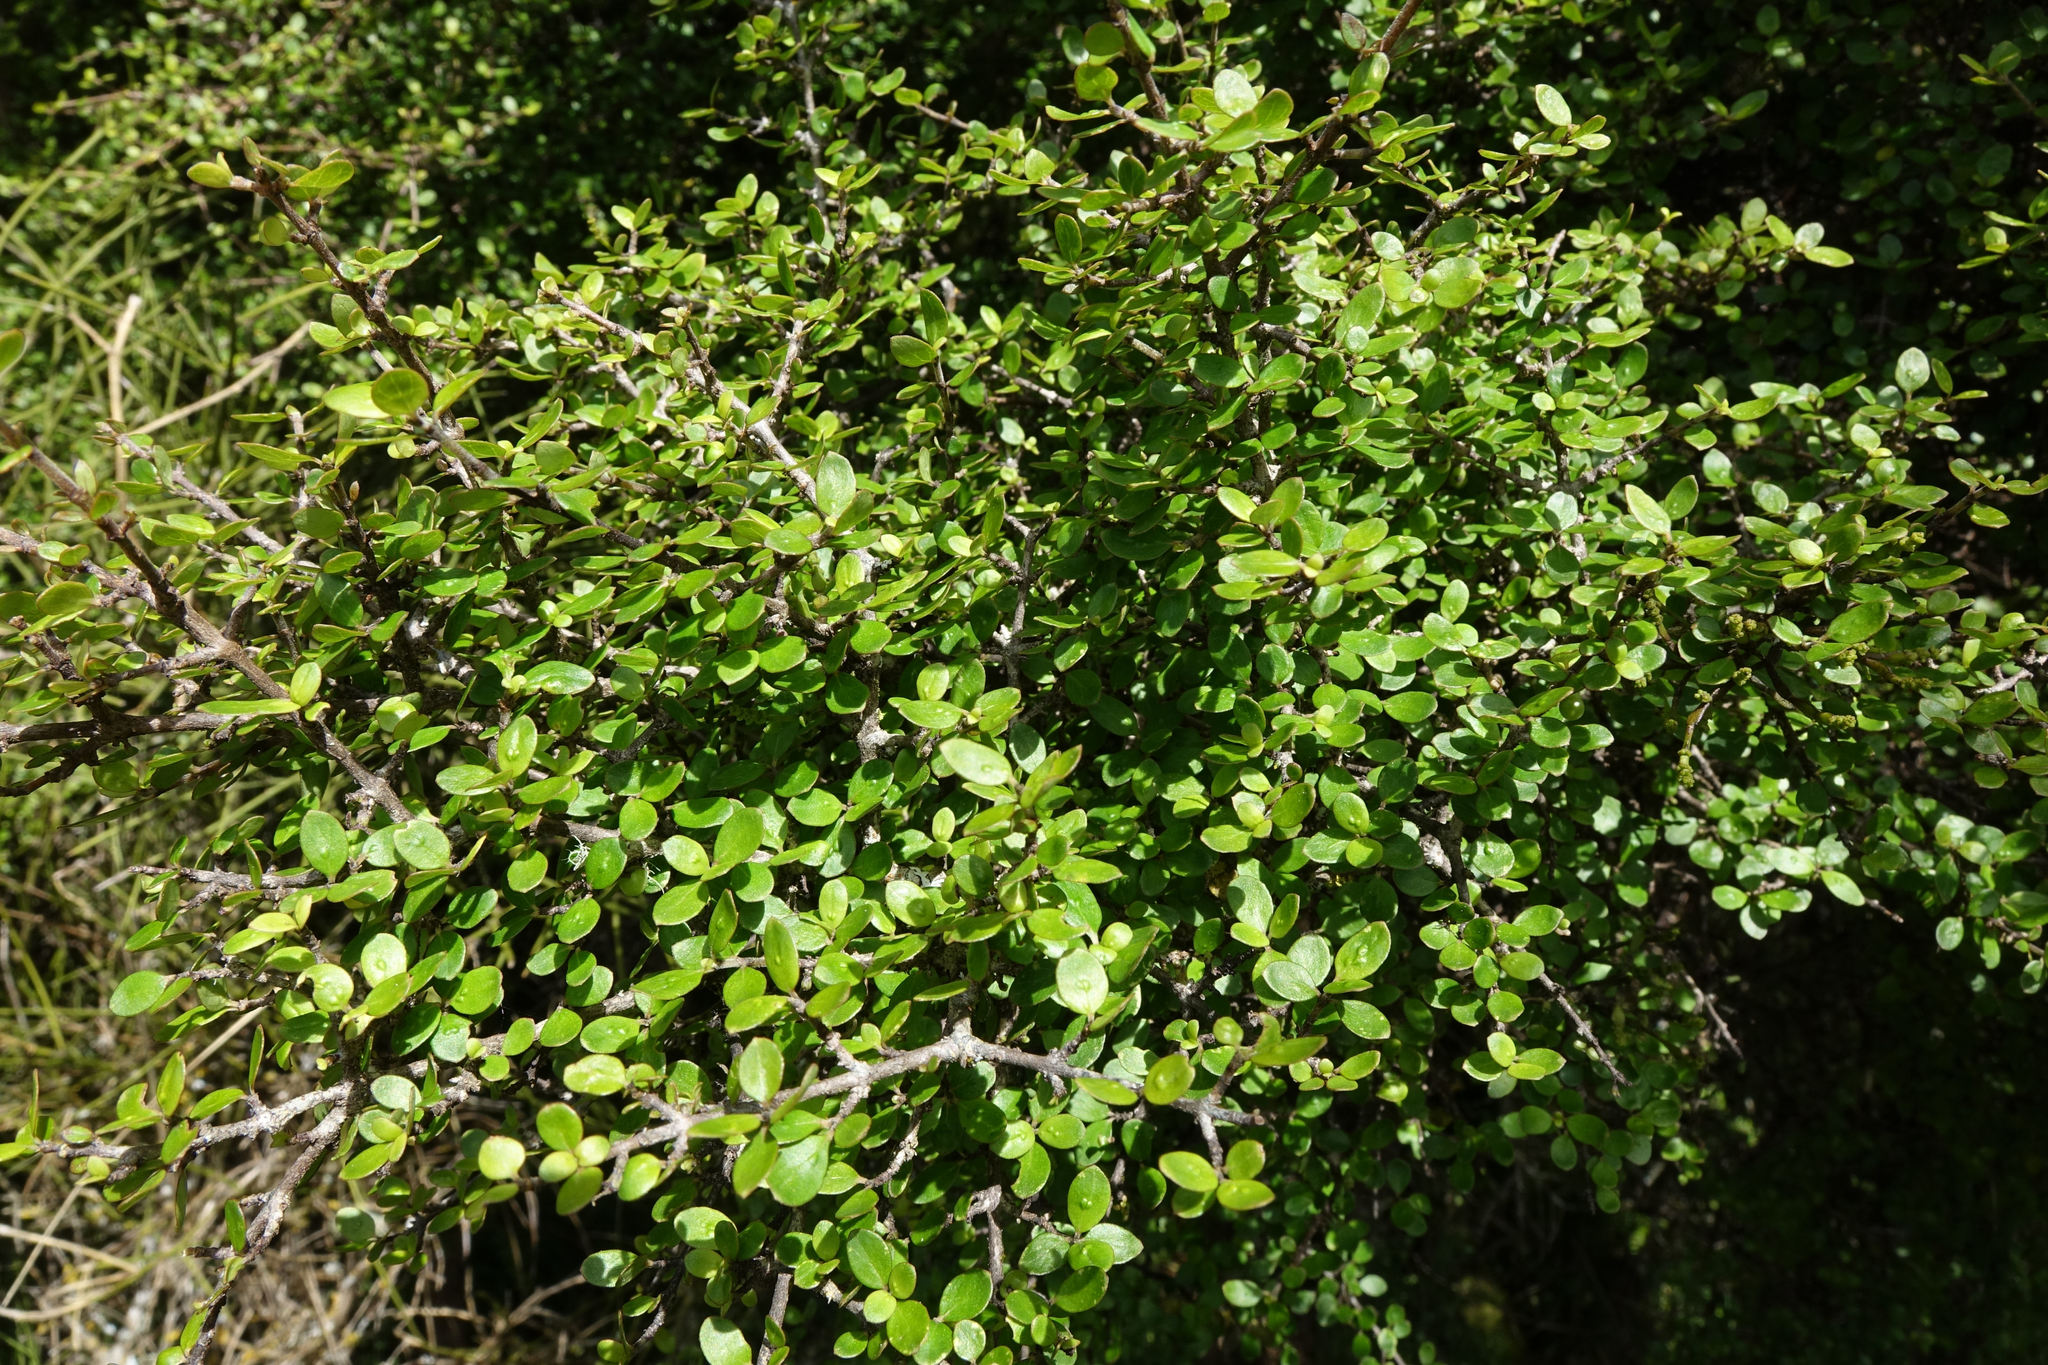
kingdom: Plantae
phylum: Tracheophyta
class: Magnoliopsida
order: Gentianales
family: Rubiaceae
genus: Coprosma
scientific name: Coprosma wallii
